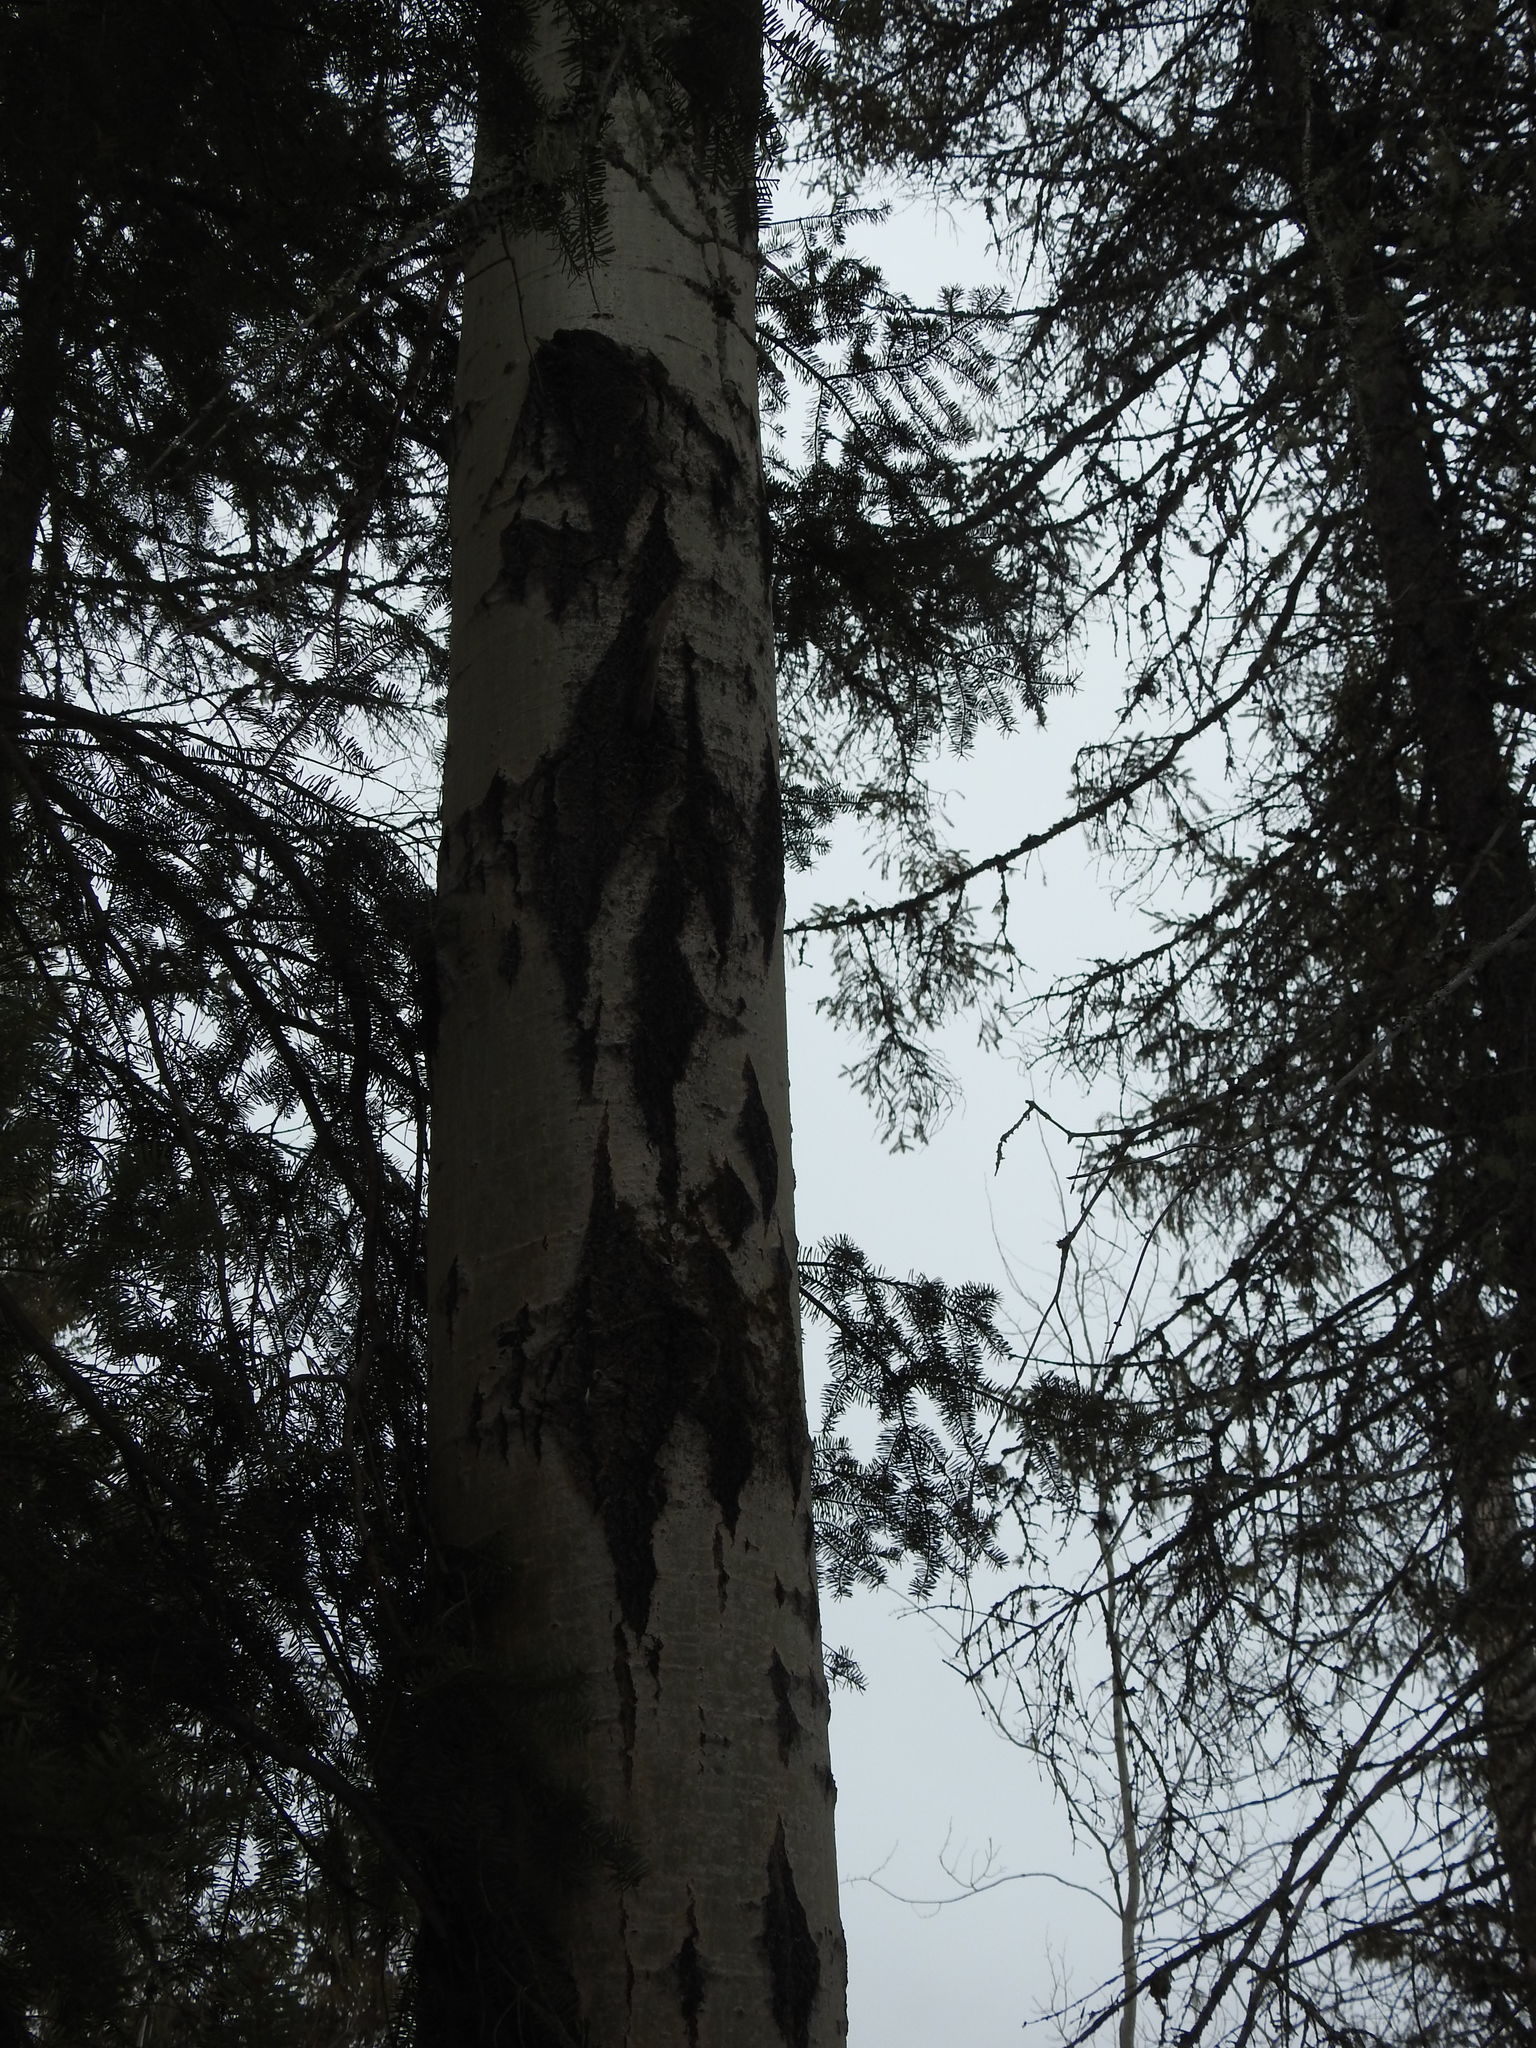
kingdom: Plantae
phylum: Tracheophyta
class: Magnoliopsida
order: Malpighiales
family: Salicaceae
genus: Populus
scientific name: Populus tremuloides
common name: Quaking aspen
